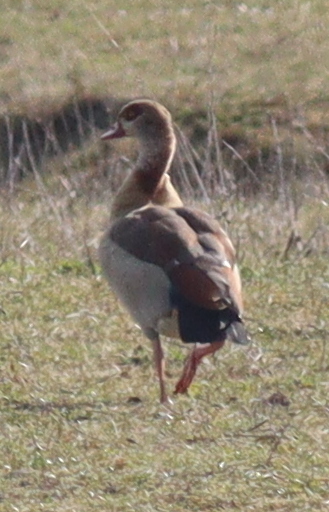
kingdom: Animalia
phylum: Chordata
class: Aves
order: Anseriformes
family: Anatidae
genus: Alopochen
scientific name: Alopochen aegyptiaca
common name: Egyptian goose
